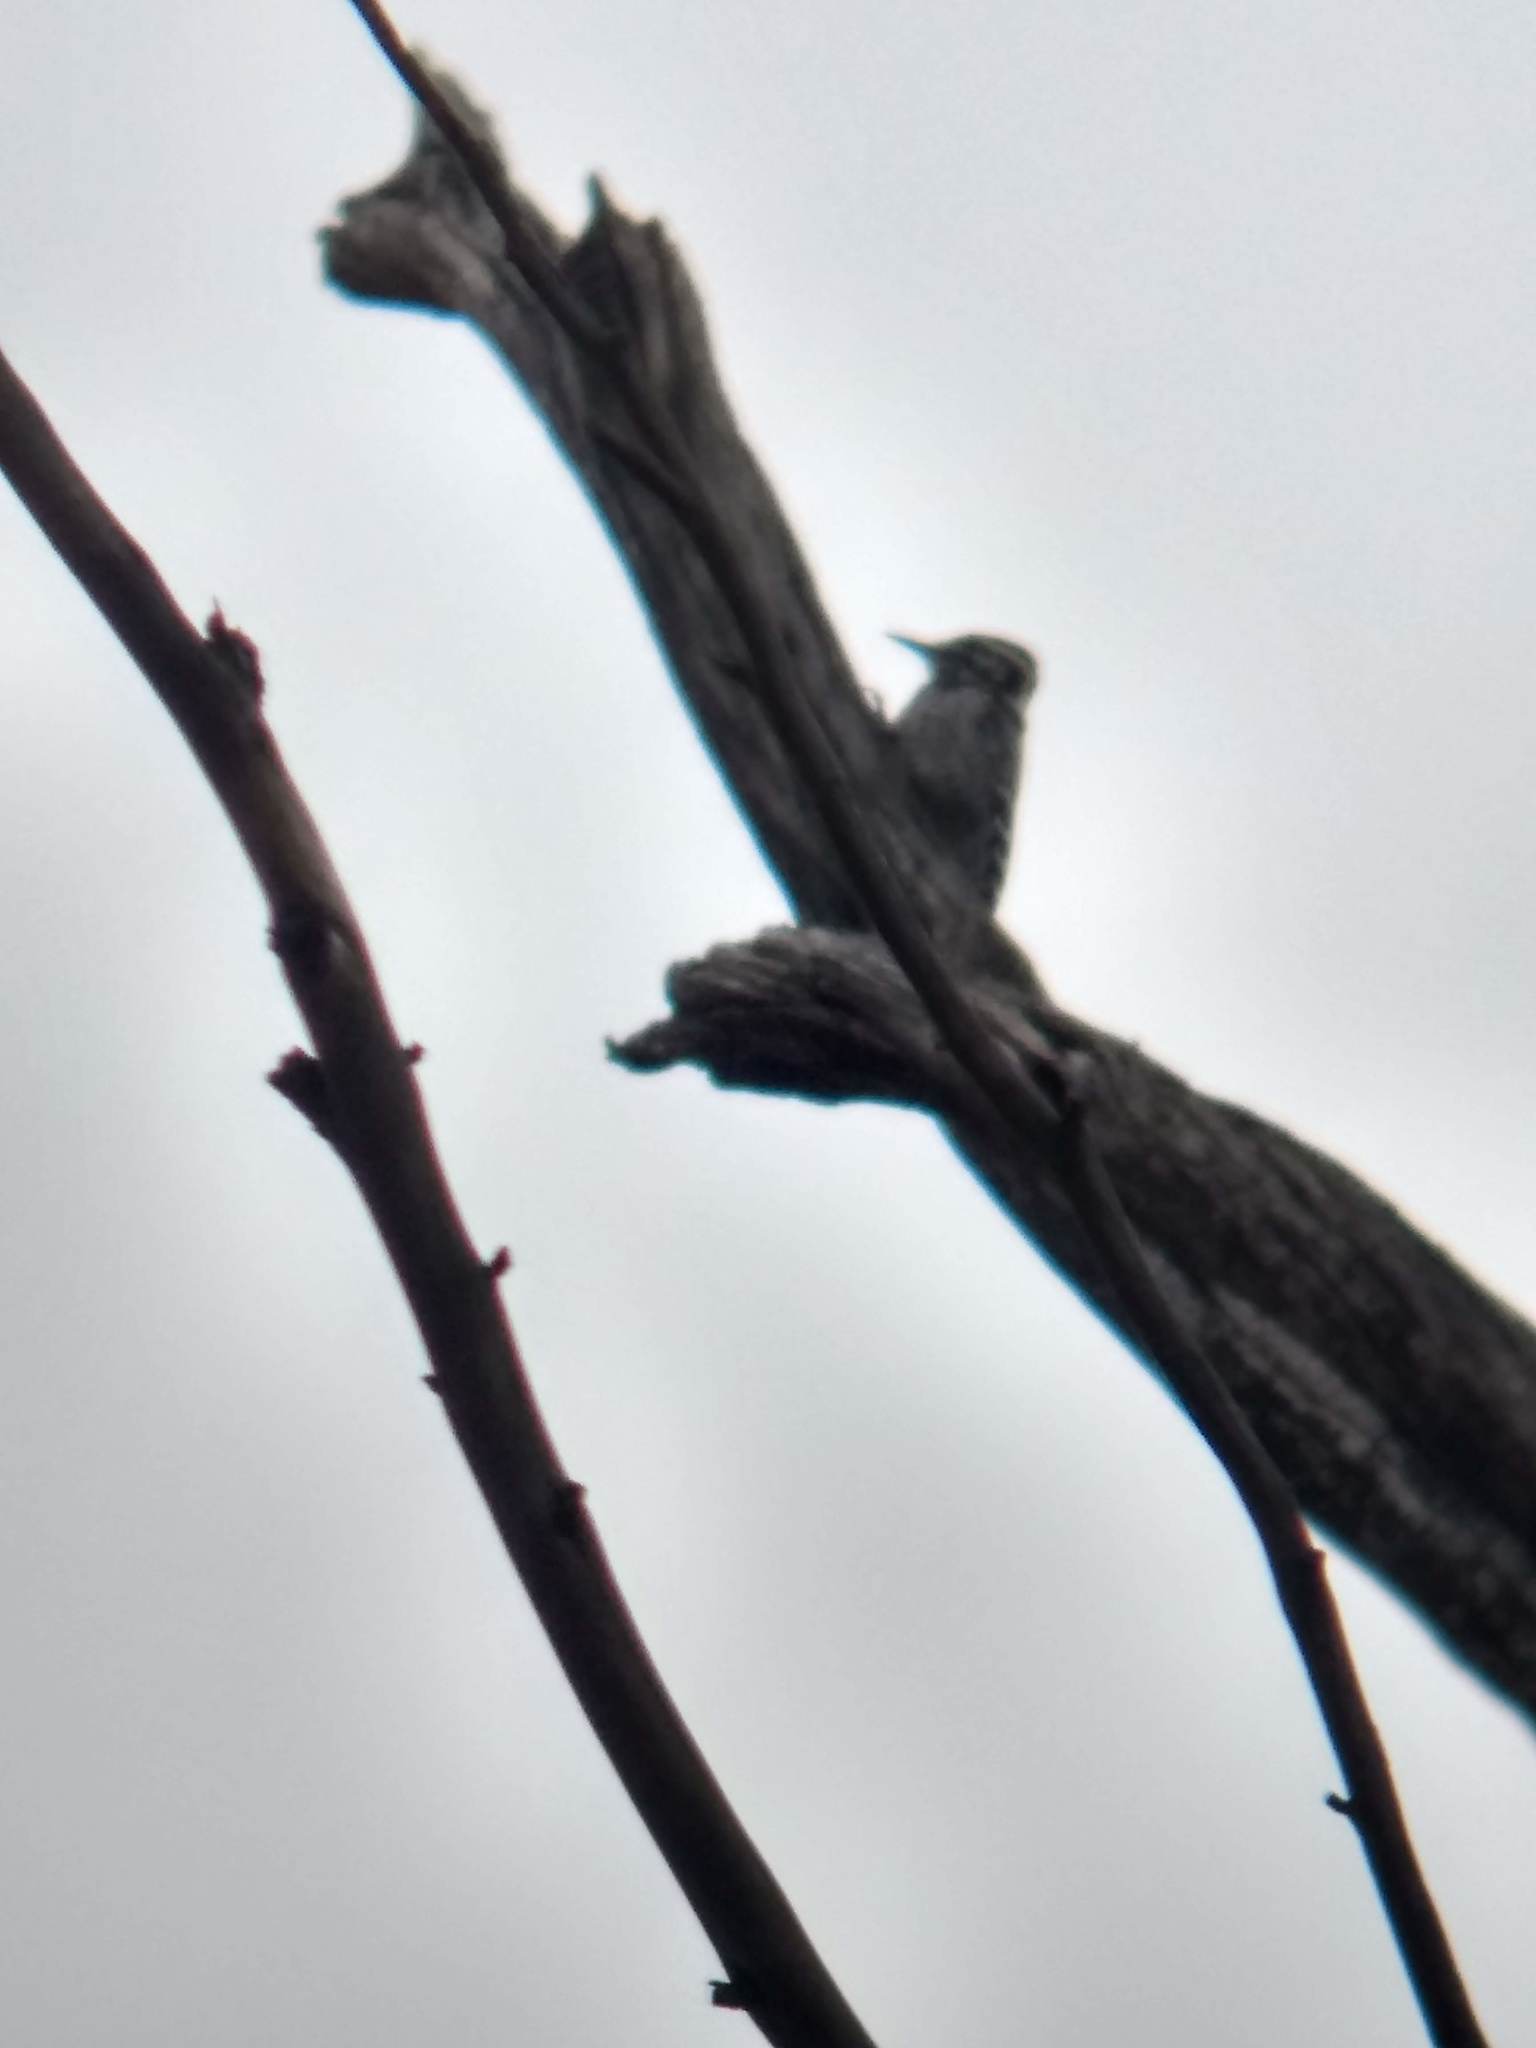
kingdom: Animalia
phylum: Chordata
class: Aves
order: Piciformes
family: Picidae
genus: Dryobates
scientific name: Dryobates nuttallii
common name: Nuttall's woodpecker
